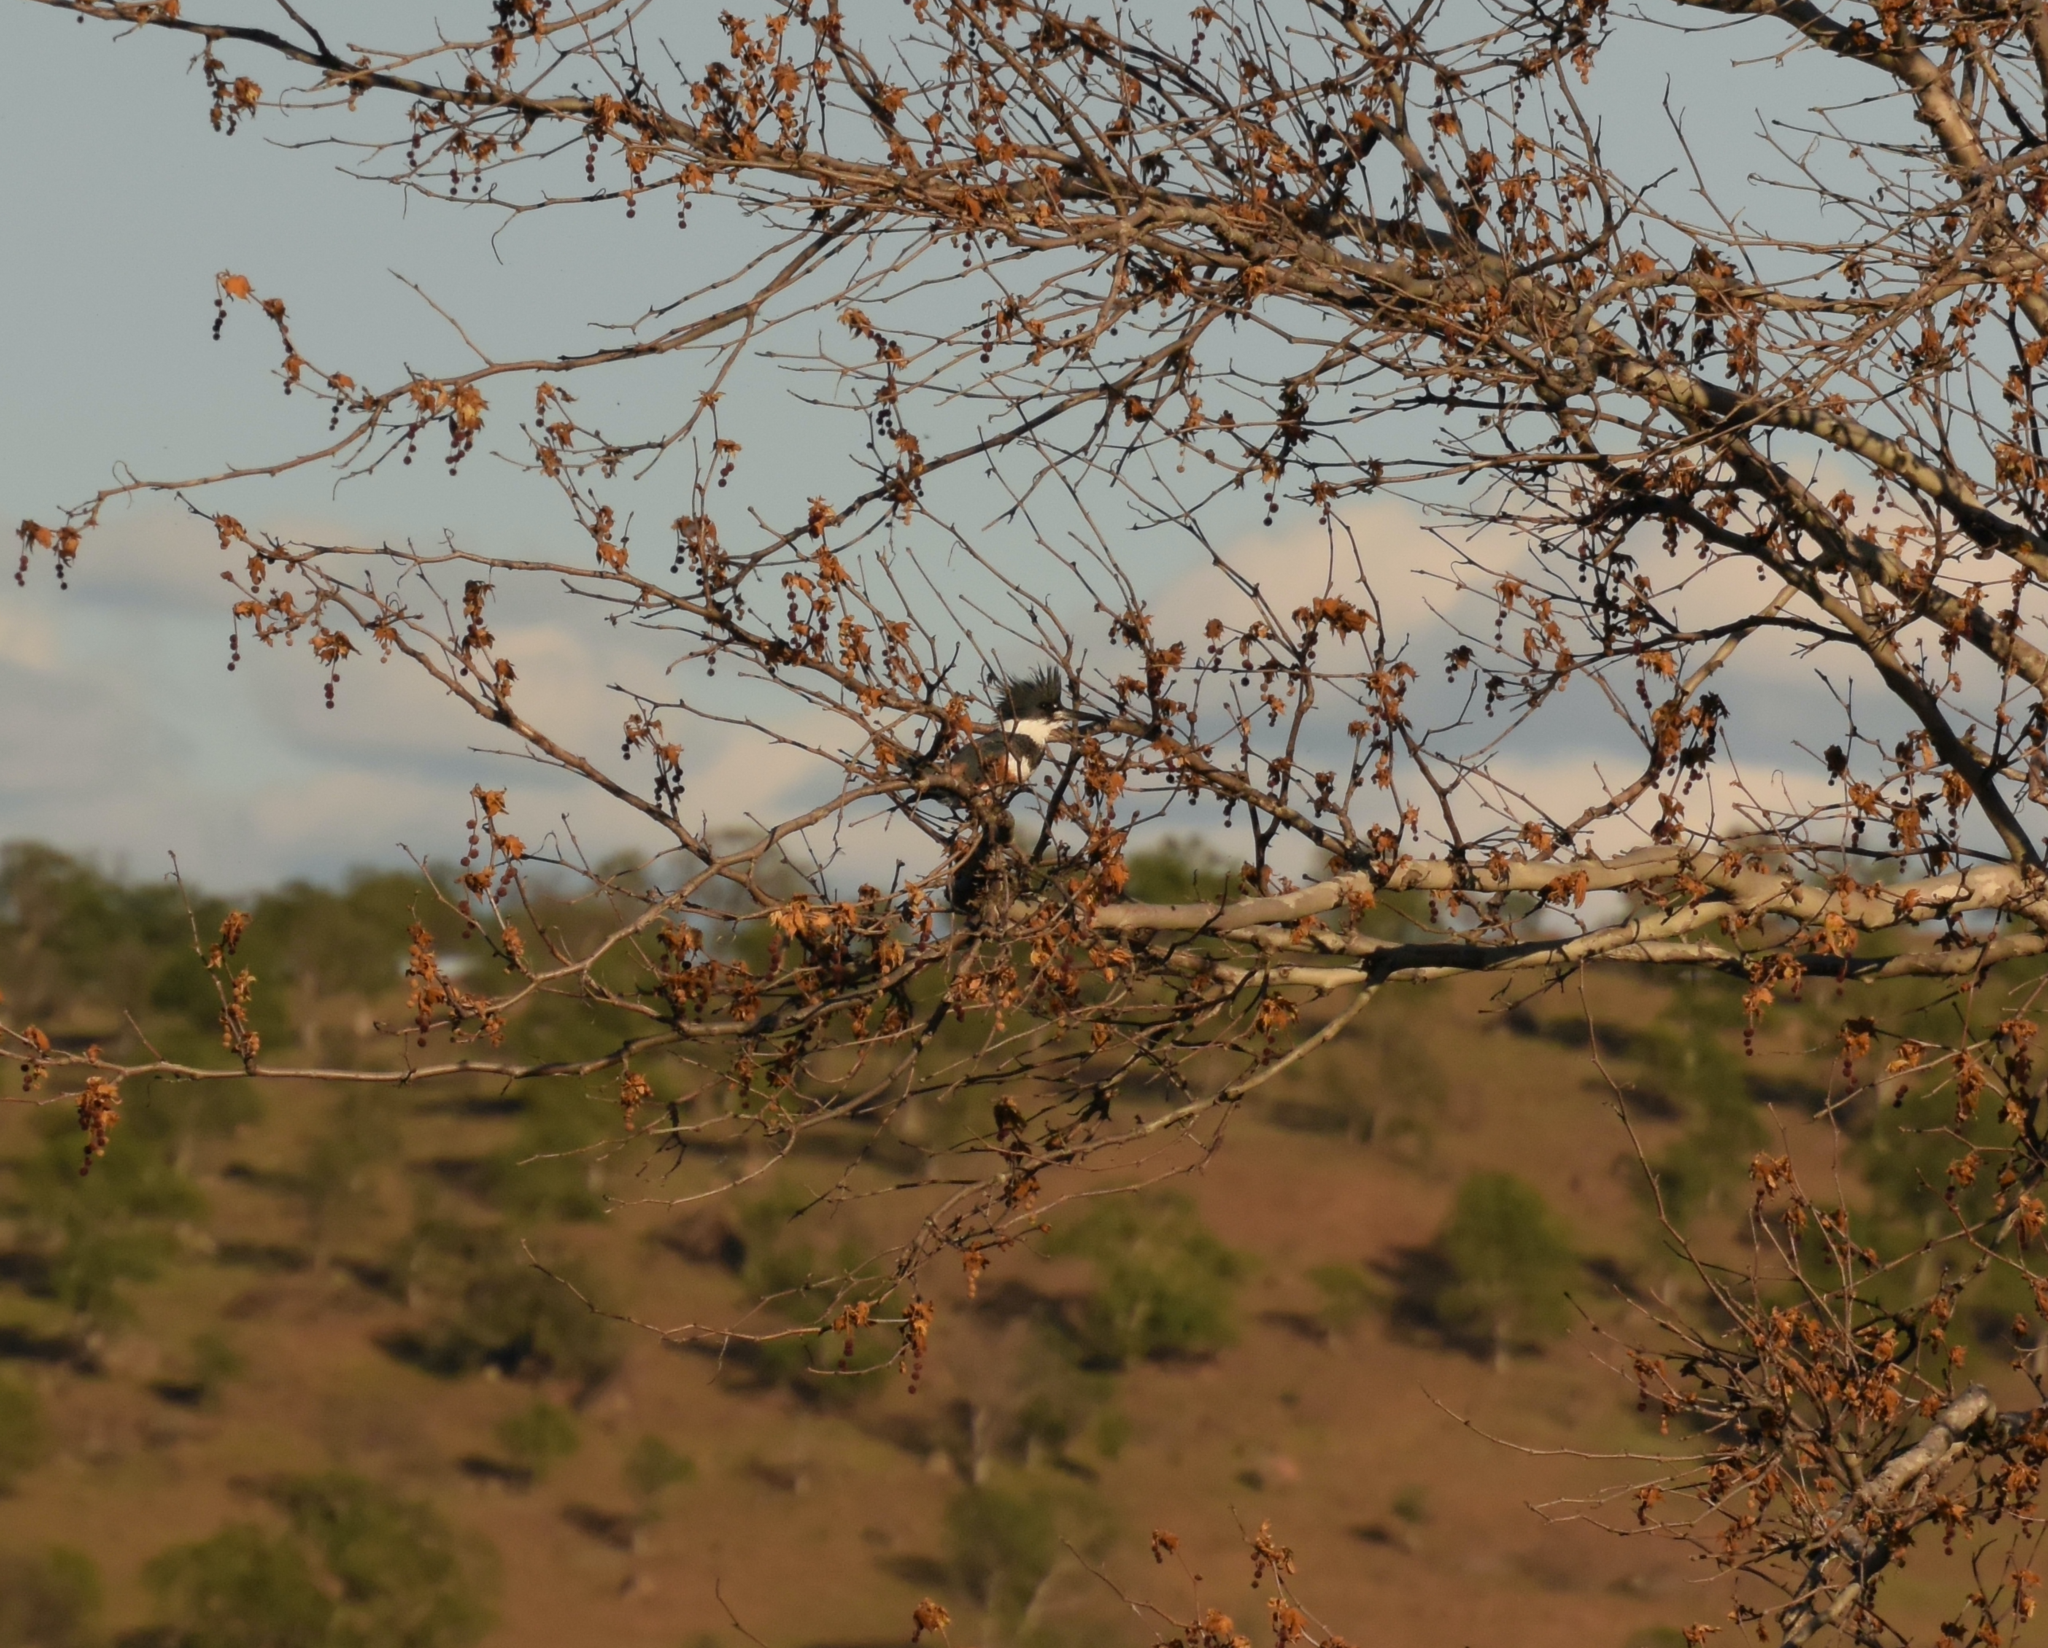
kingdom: Animalia
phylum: Chordata
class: Aves
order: Coraciiformes
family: Alcedinidae
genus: Megaceryle
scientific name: Megaceryle alcyon
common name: Belted kingfisher
